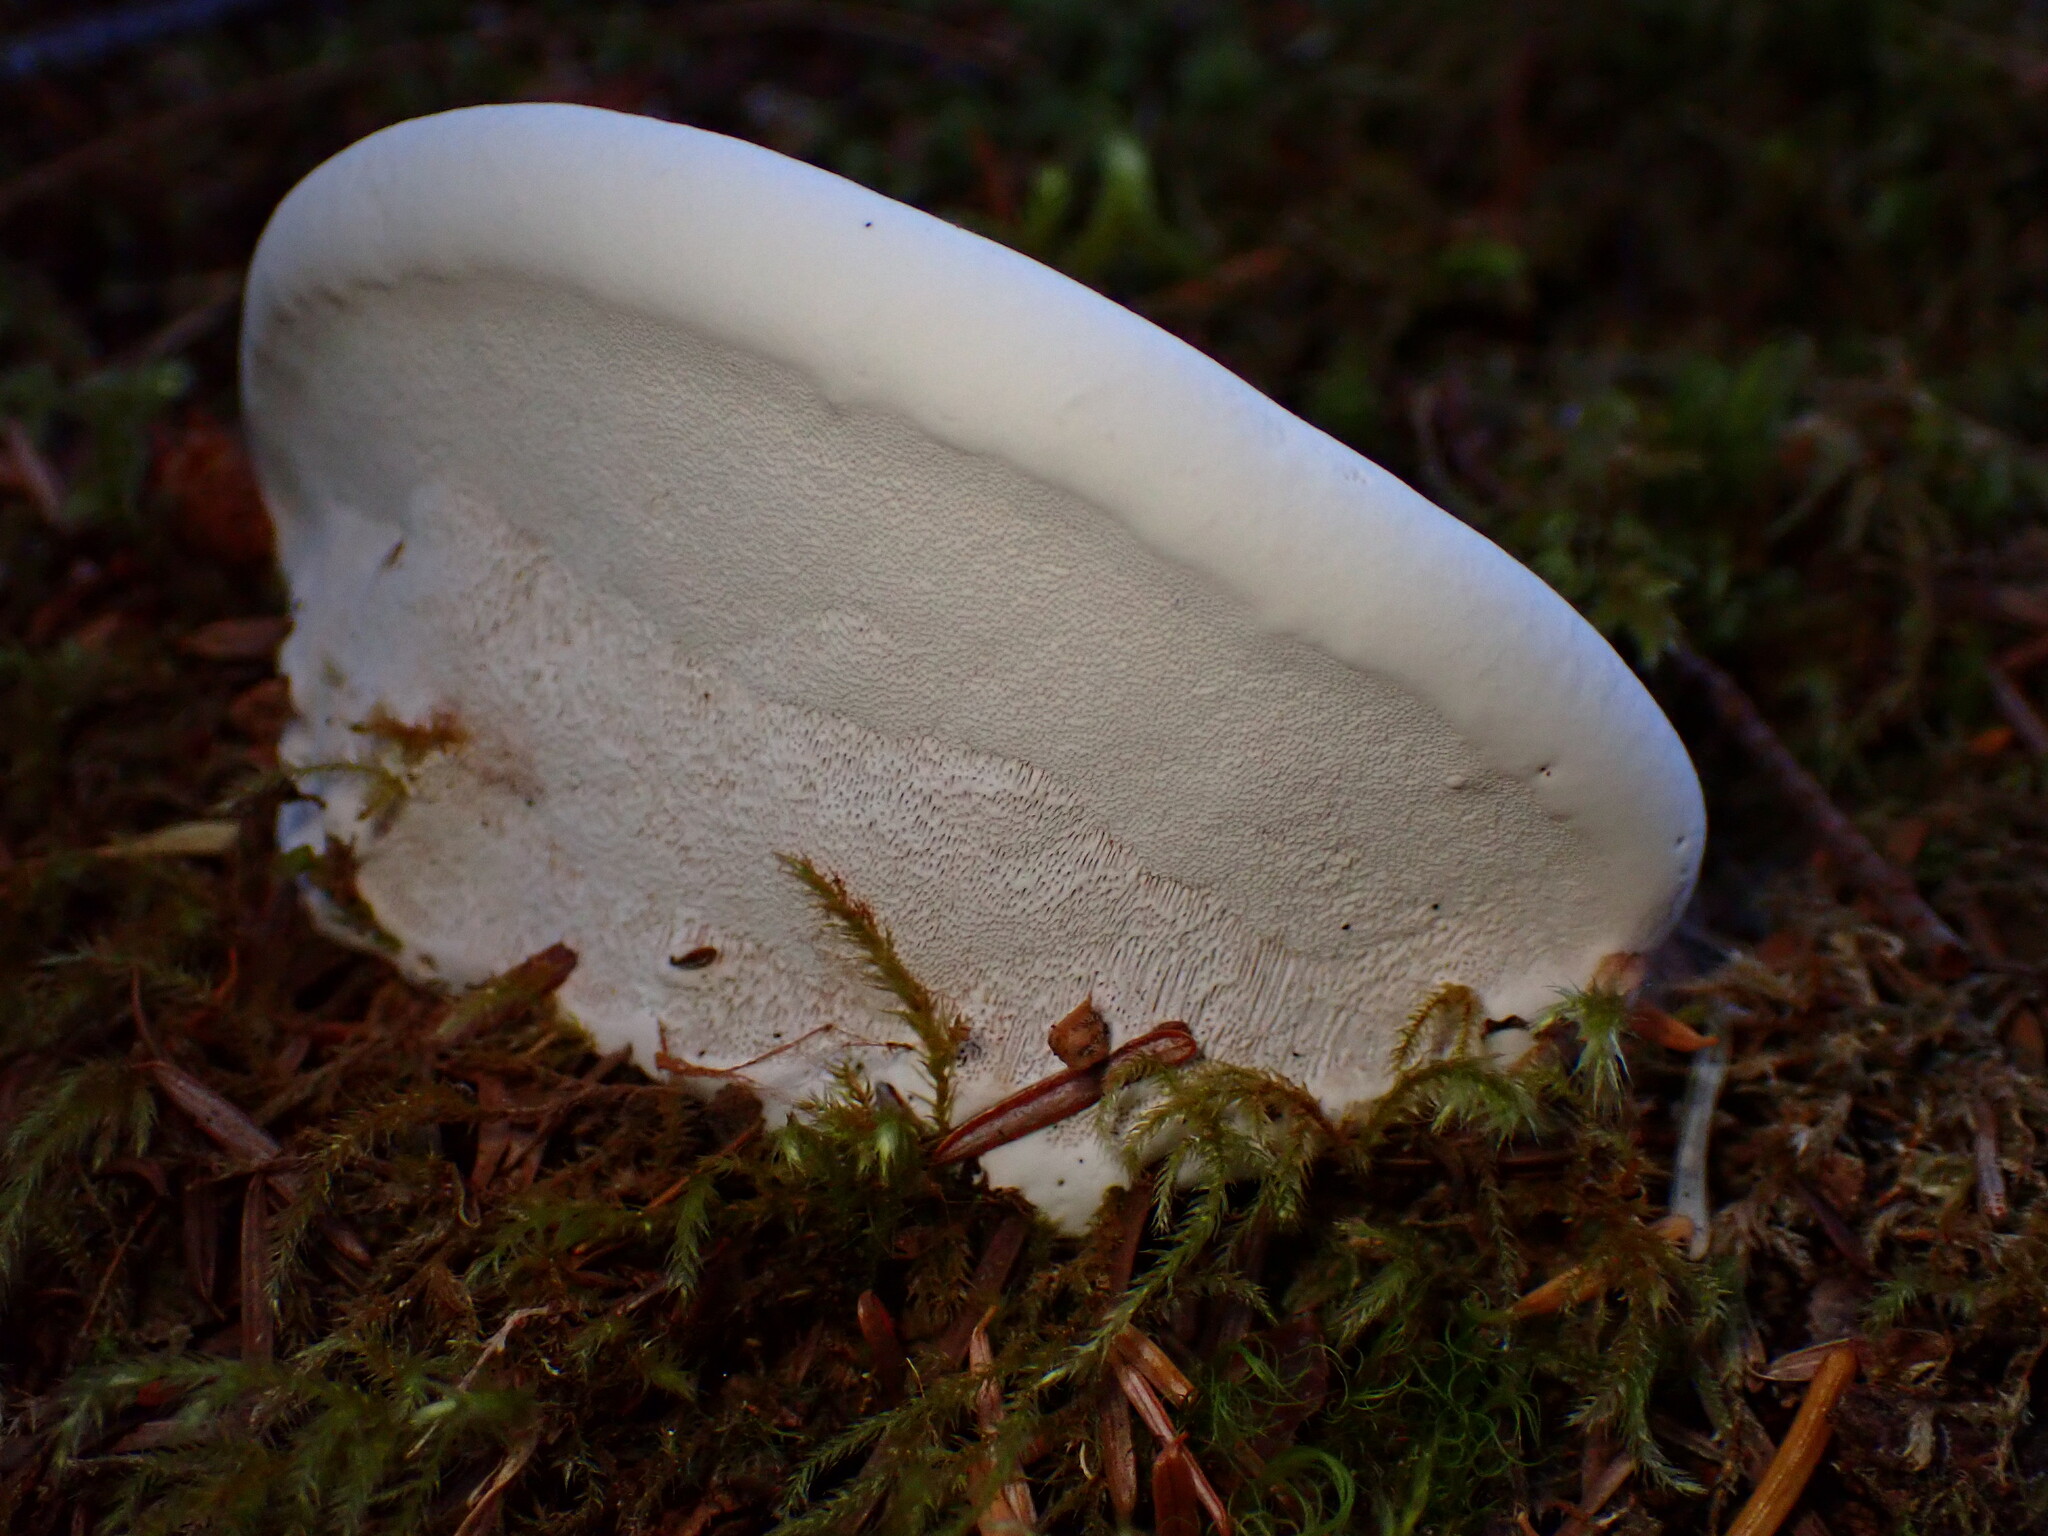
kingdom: Fungi
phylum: Basidiomycota
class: Agaricomycetes
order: Polyporales
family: Polyporaceae
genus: Ganoderma
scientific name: Ganoderma applanatum
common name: Artist's bracket
